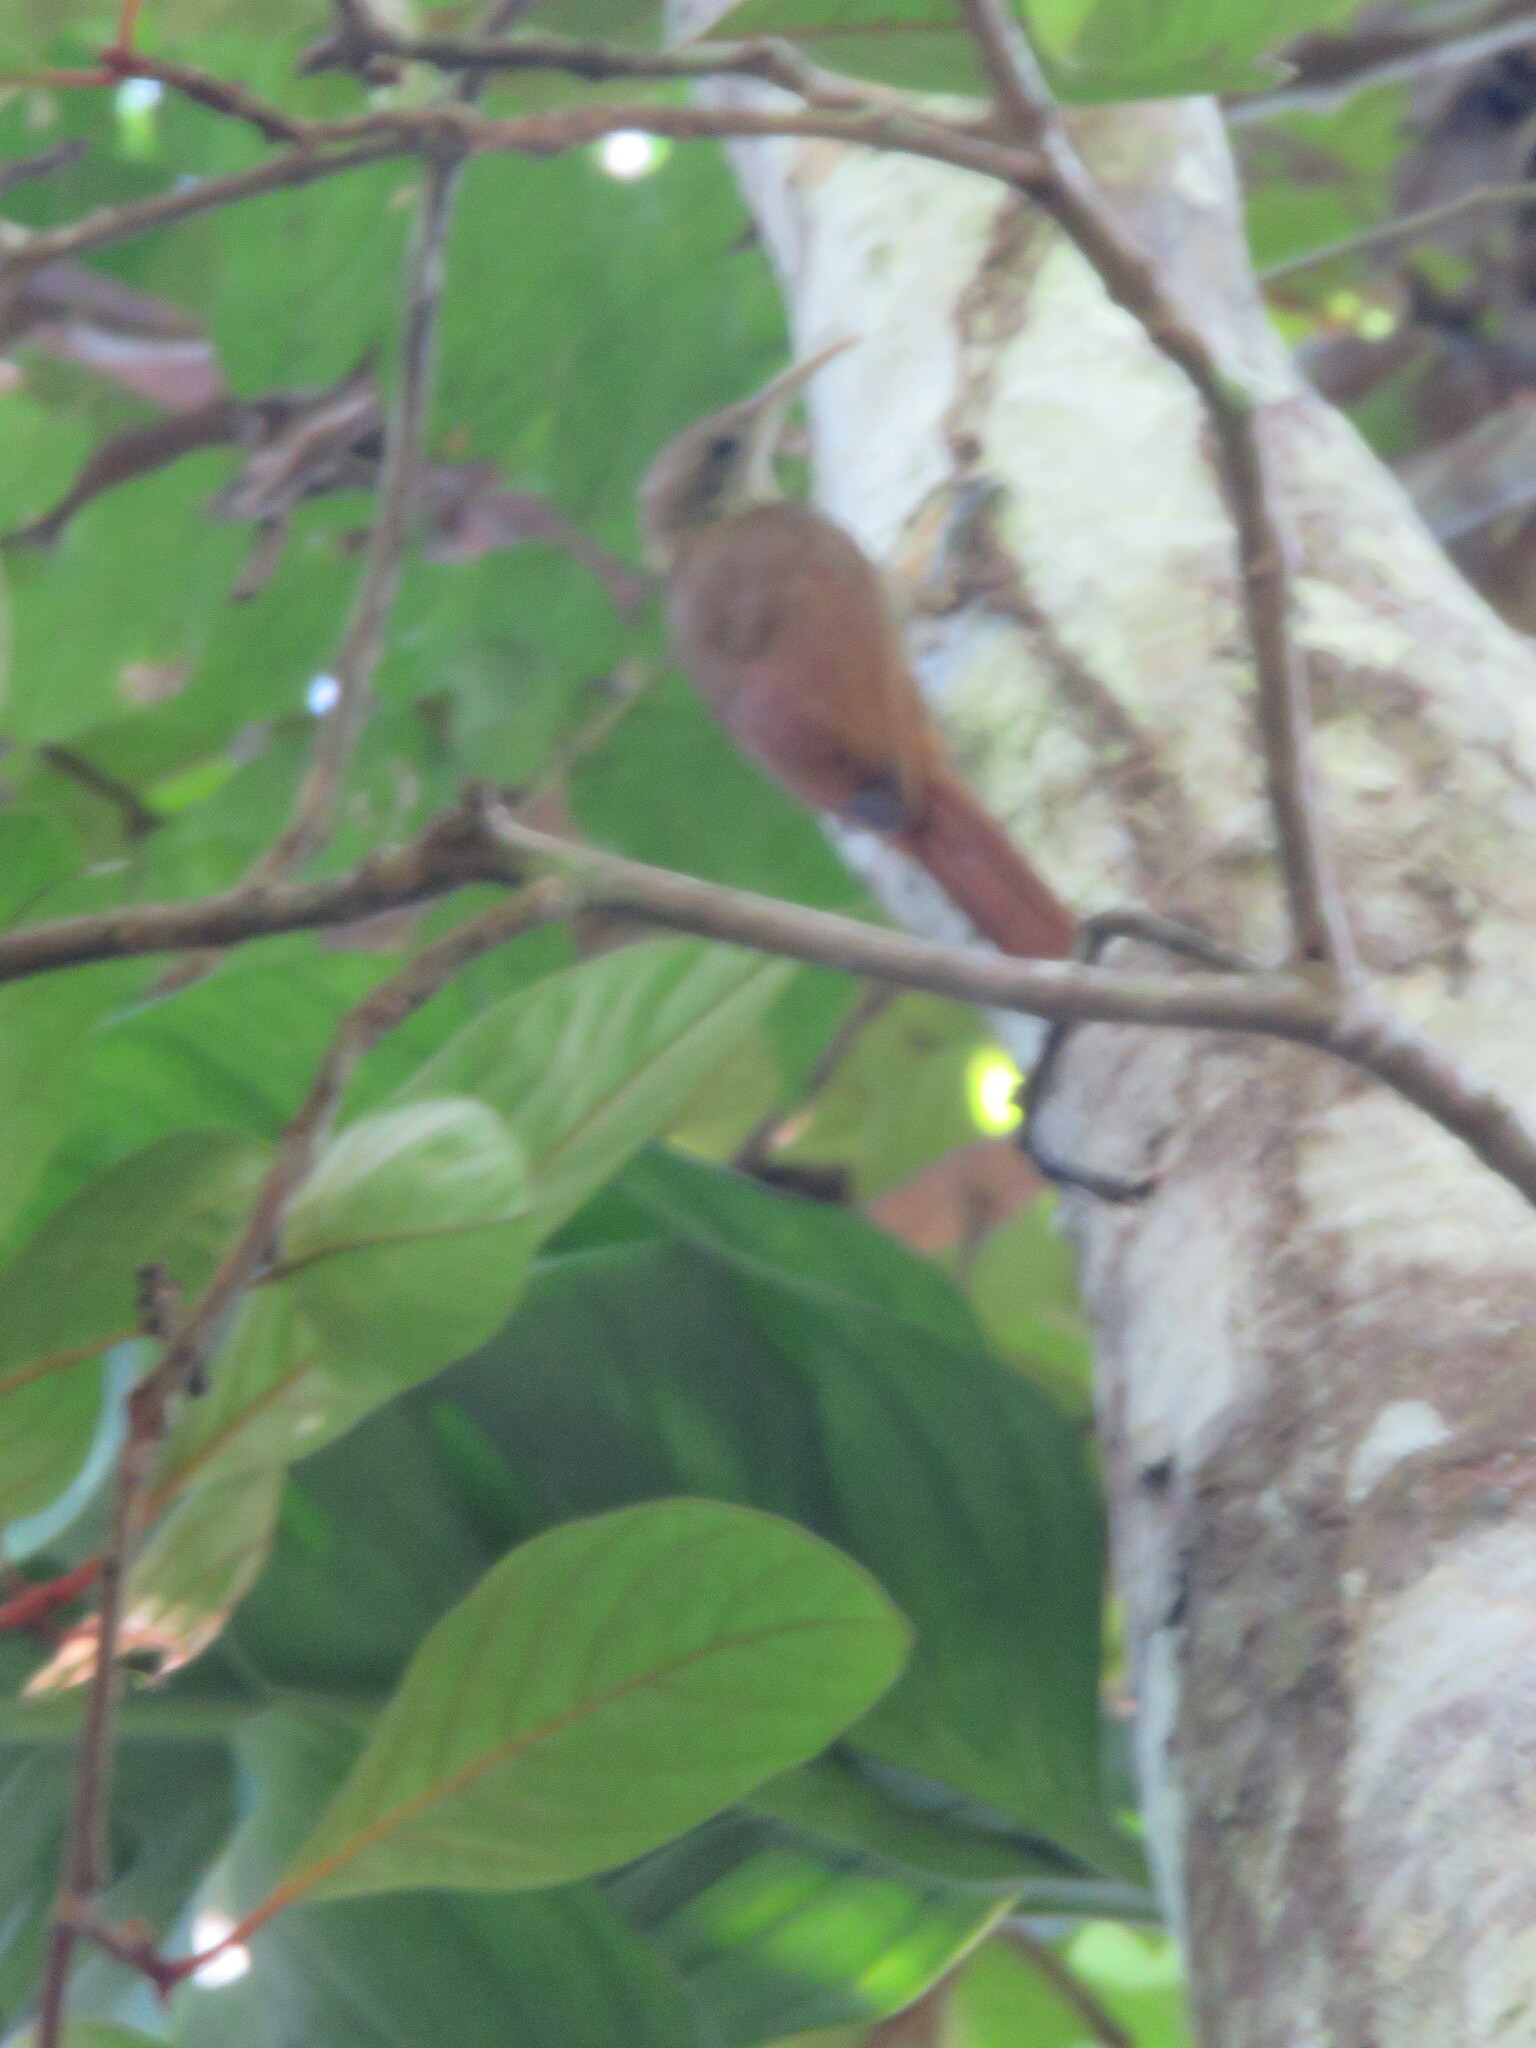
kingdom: Animalia
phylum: Chordata
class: Aves
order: Passeriformes
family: Furnariidae
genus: Xiphocolaptes
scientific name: Xiphocolaptes promeropirhynchus
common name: Strong-billed woodcreeper
